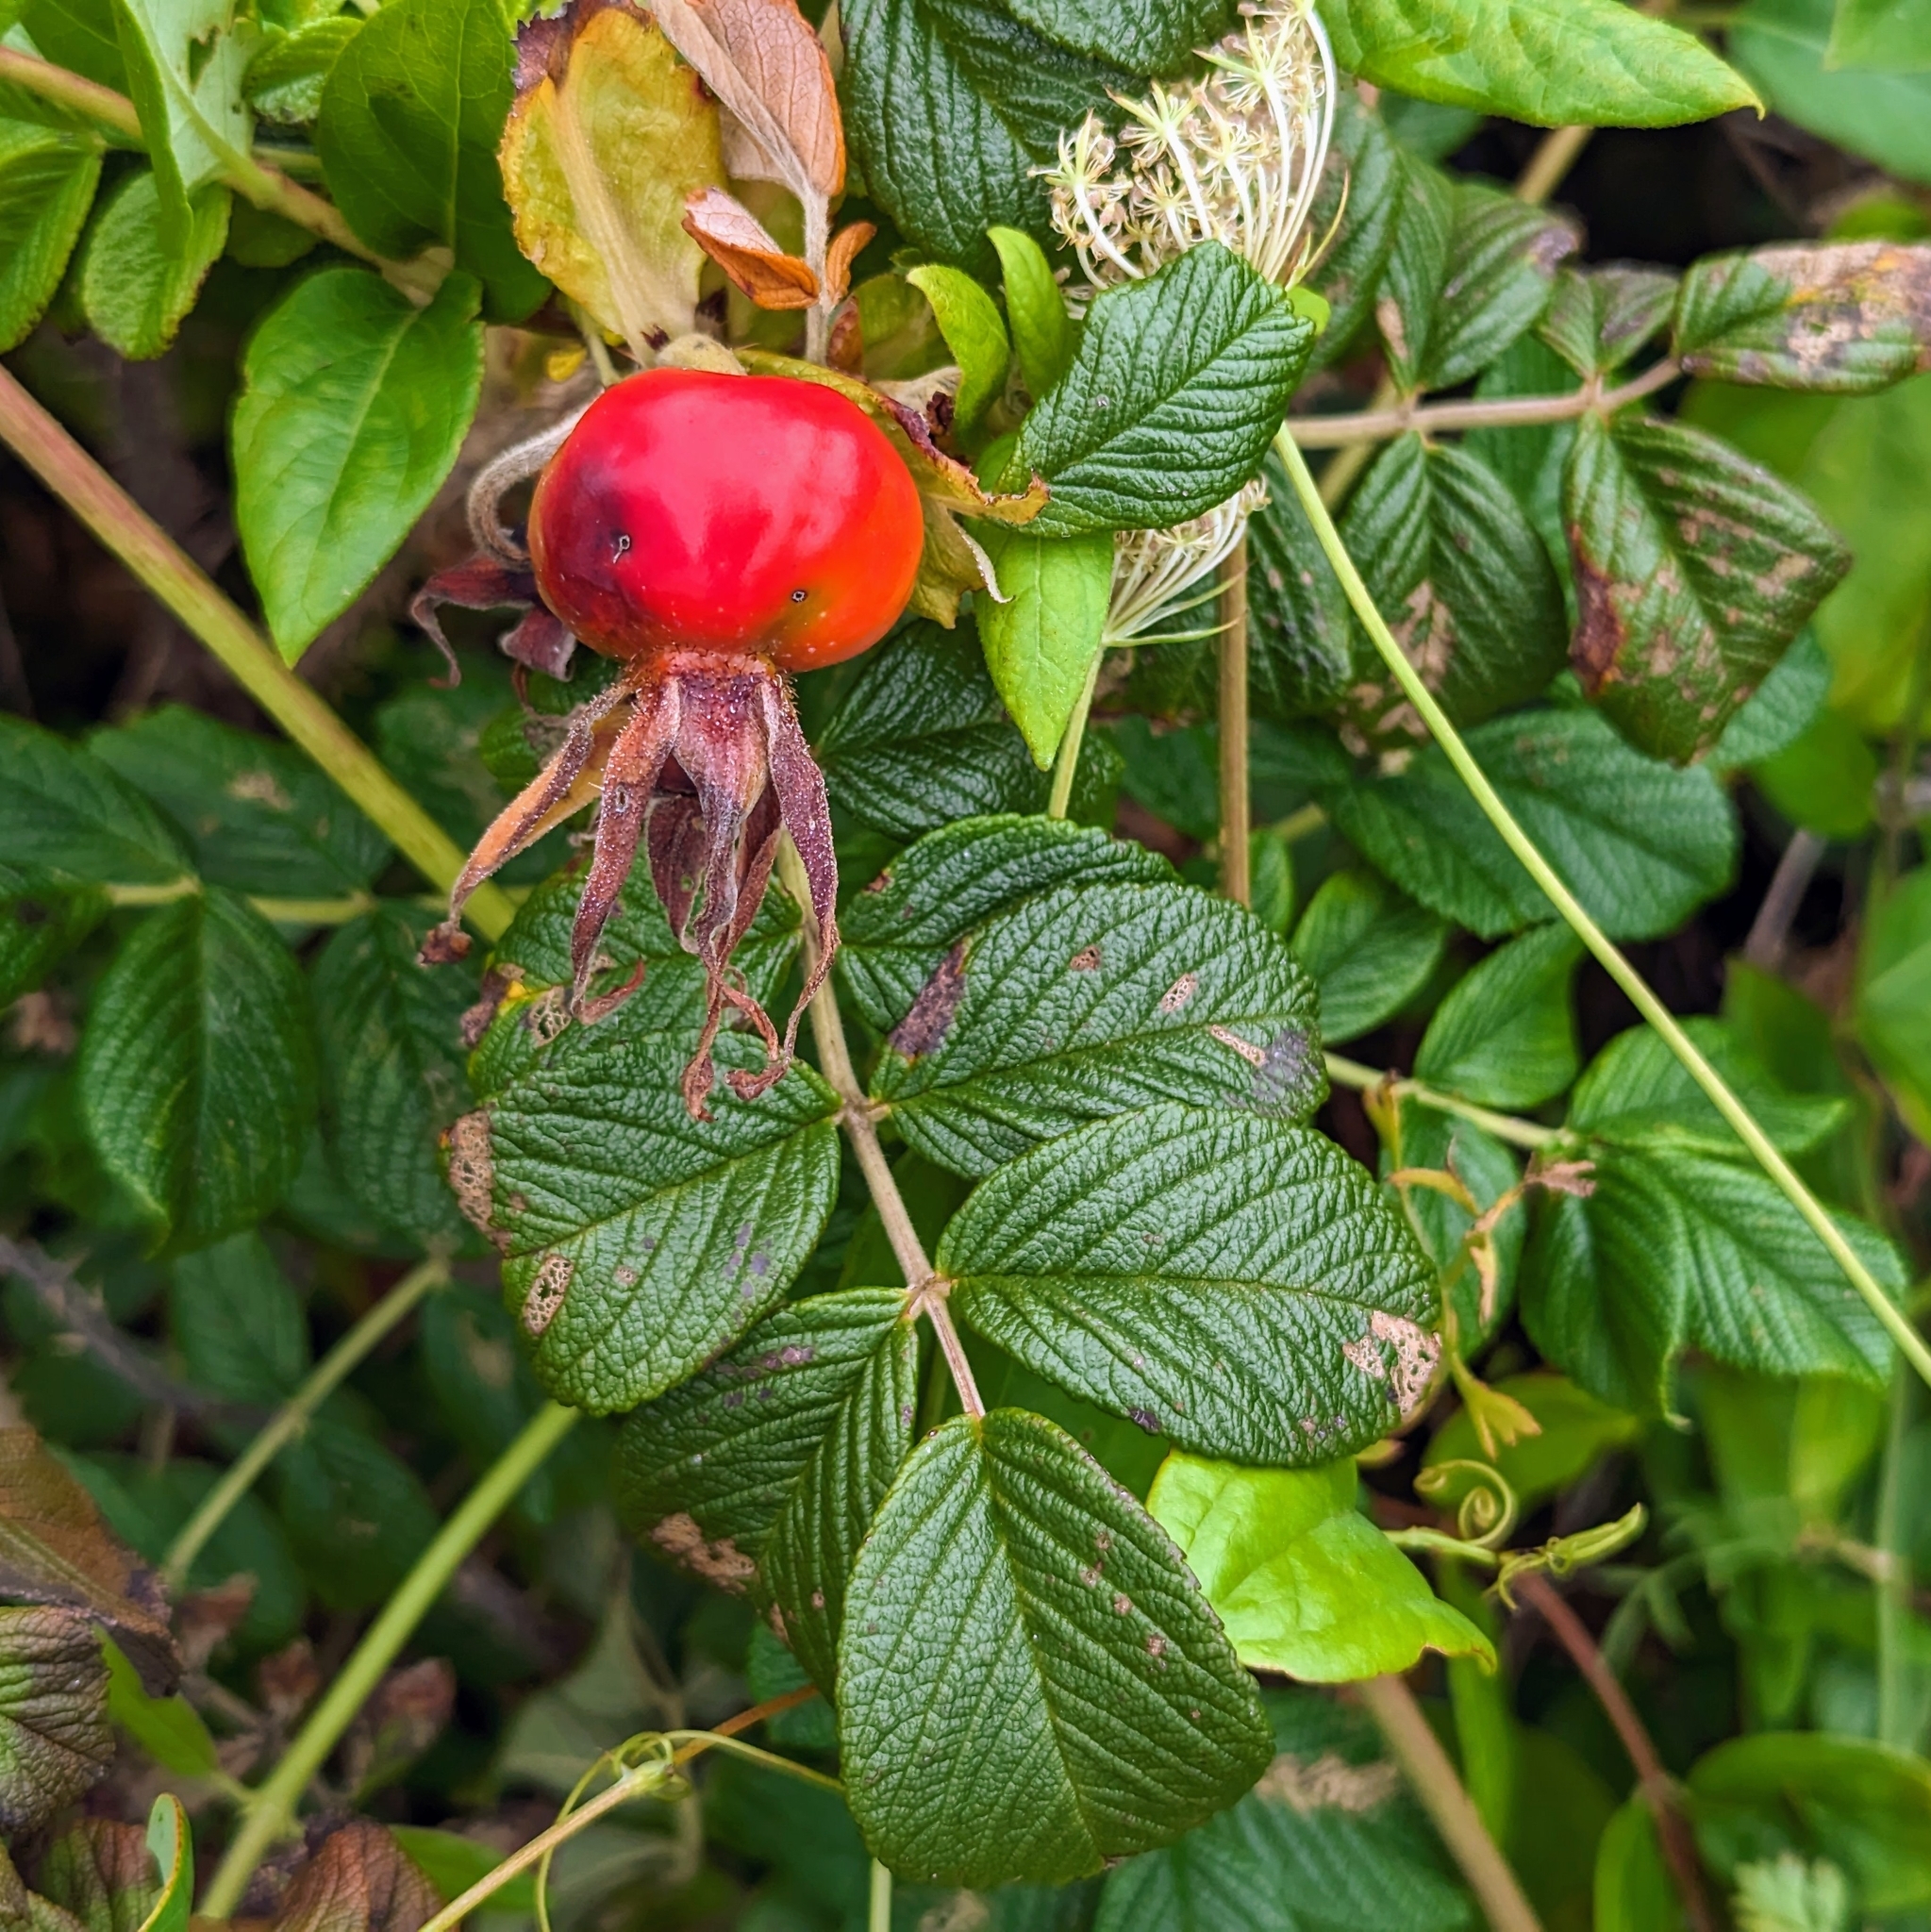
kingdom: Plantae
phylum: Tracheophyta
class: Magnoliopsida
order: Rosales
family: Rosaceae
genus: Rosa
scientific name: Rosa rugosa
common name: Japanese rose
